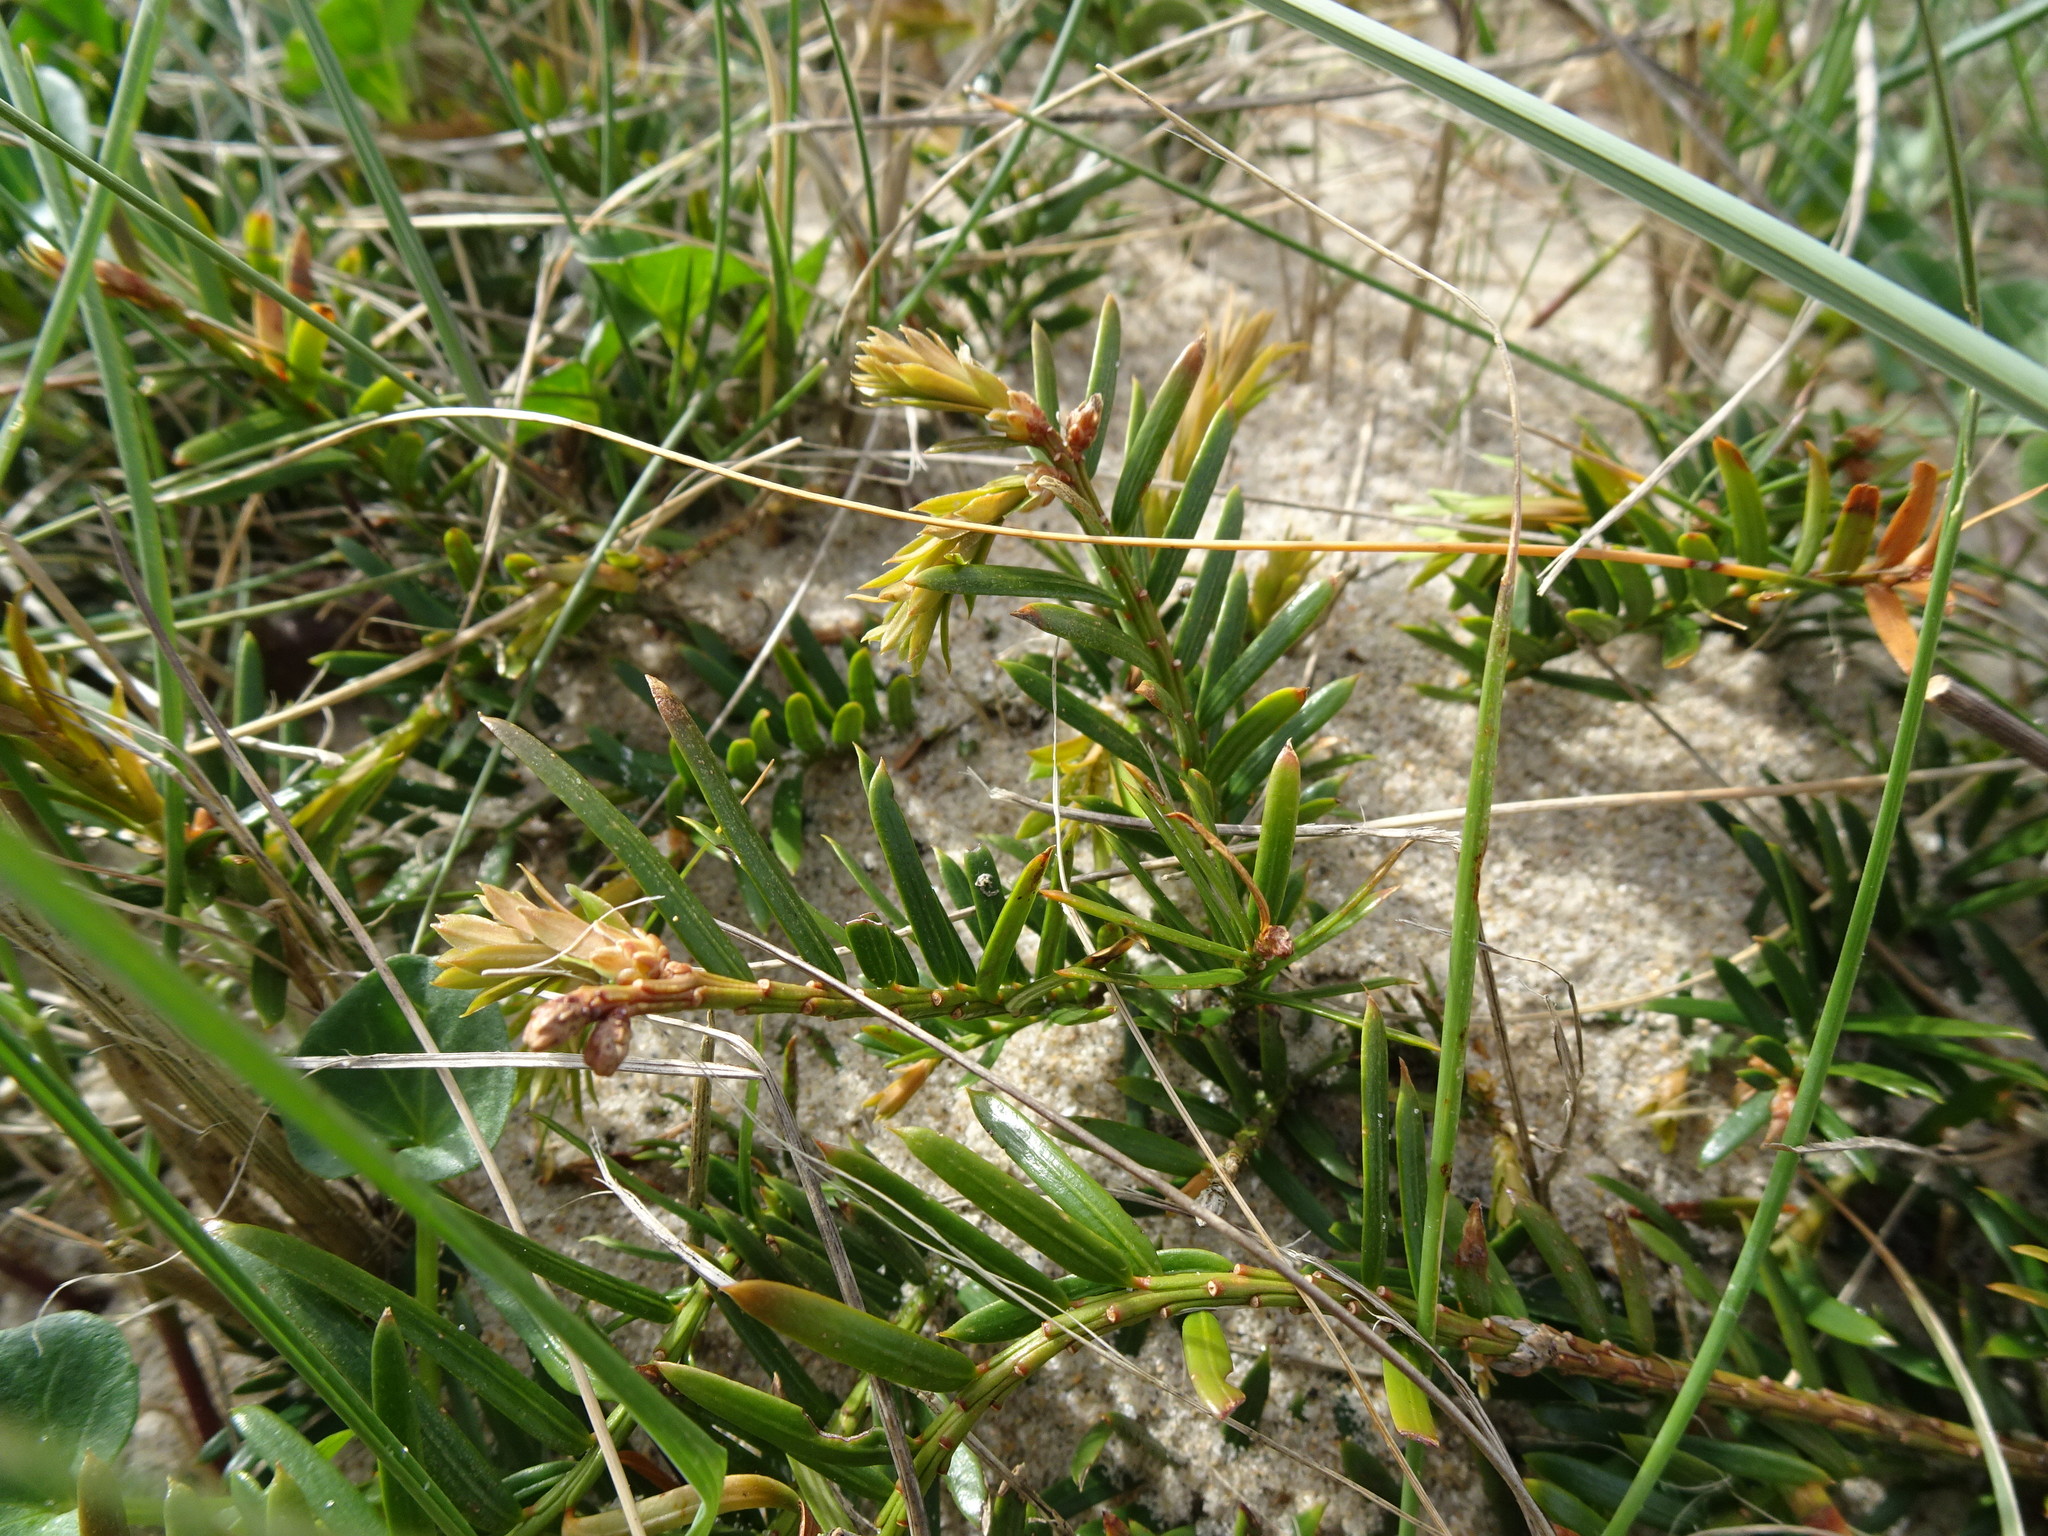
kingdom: Plantae
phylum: Tracheophyta
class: Pinopsida
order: Pinales
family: Taxaceae
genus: Taxus
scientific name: Taxus baccata
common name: Yew
